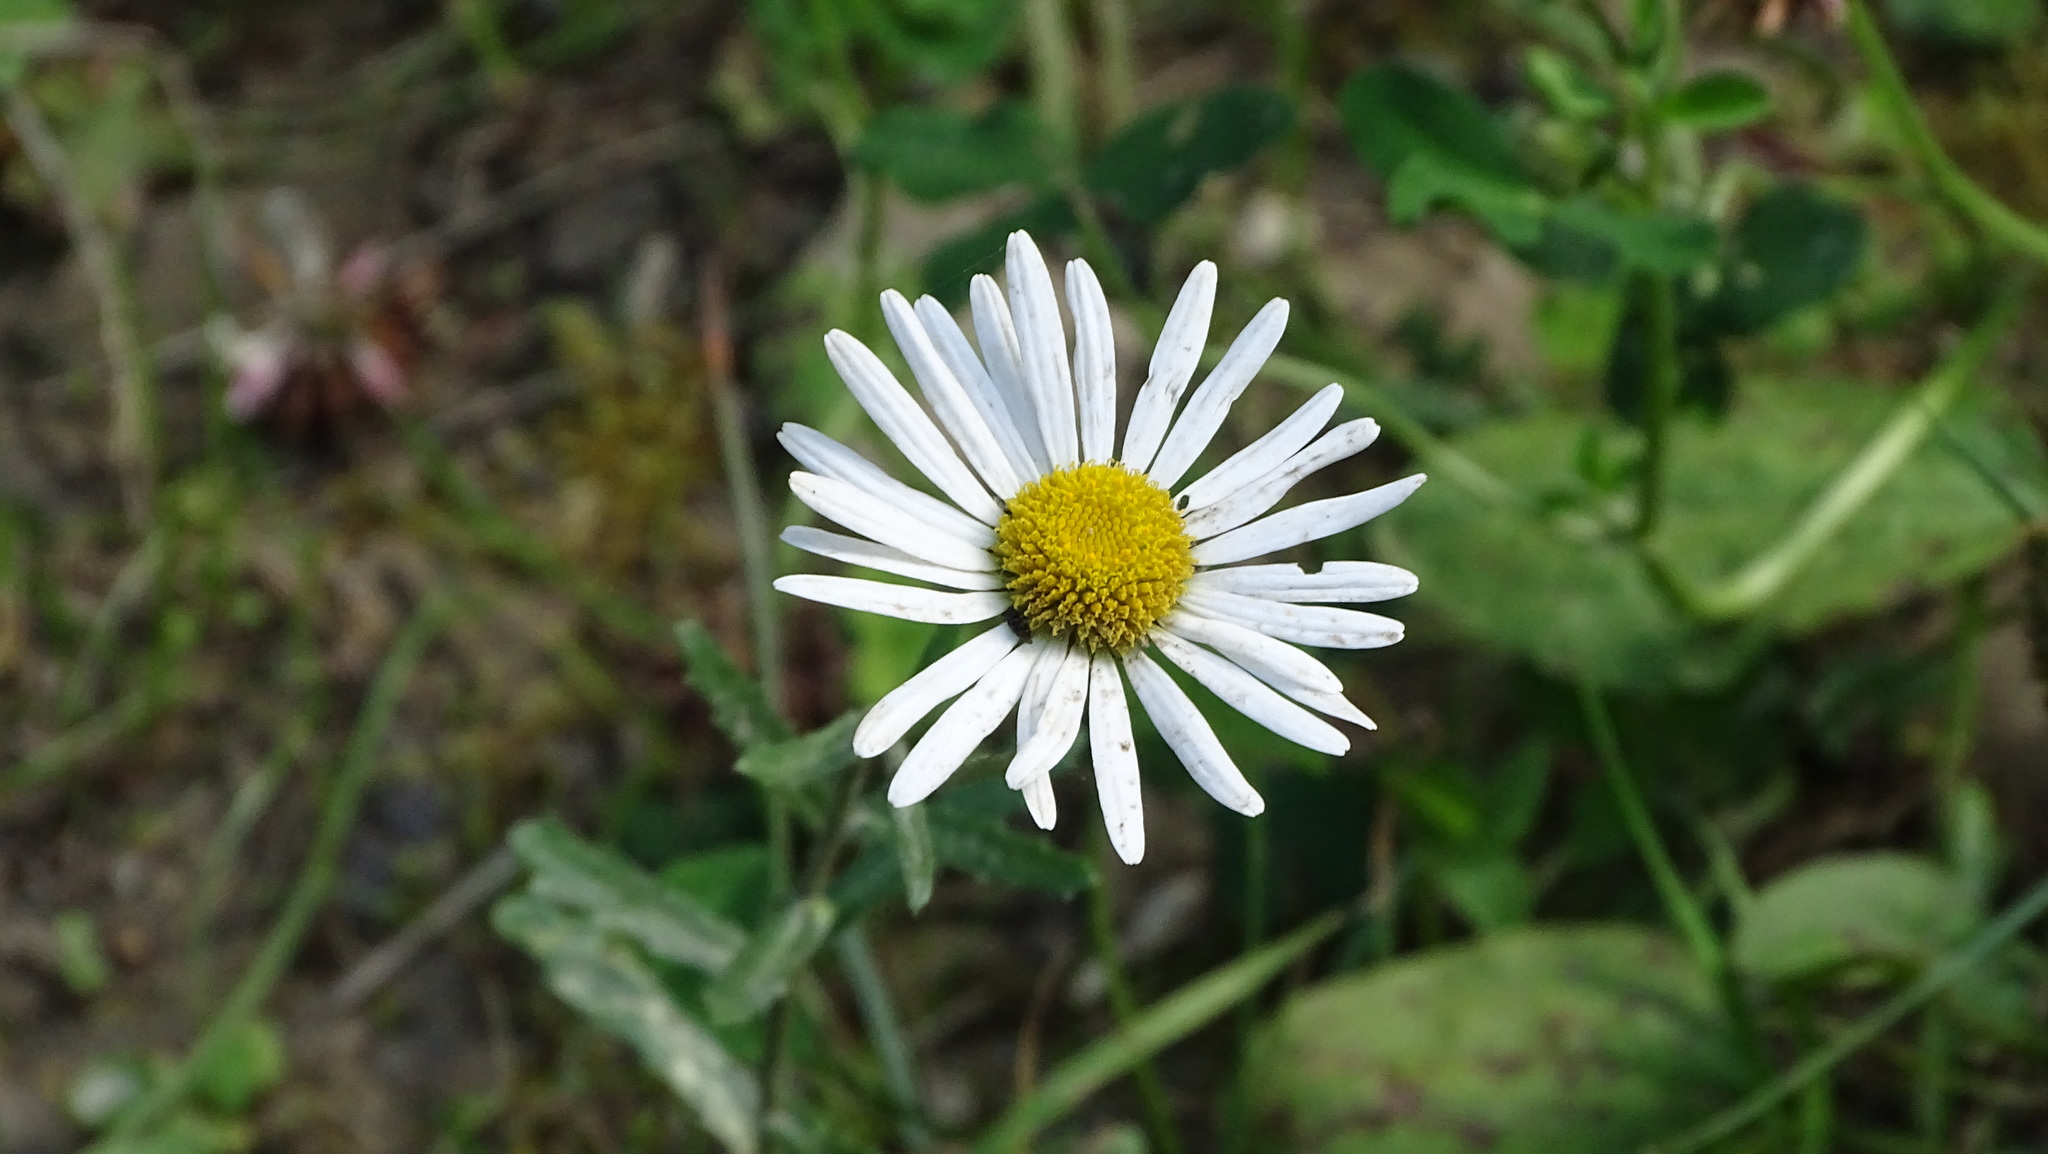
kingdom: Plantae
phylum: Tracheophyta
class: Magnoliopsida
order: Asterales
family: Asteraceae
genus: Leucanthemum
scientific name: Leucanthemum vulgare
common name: Oxeye daisy
